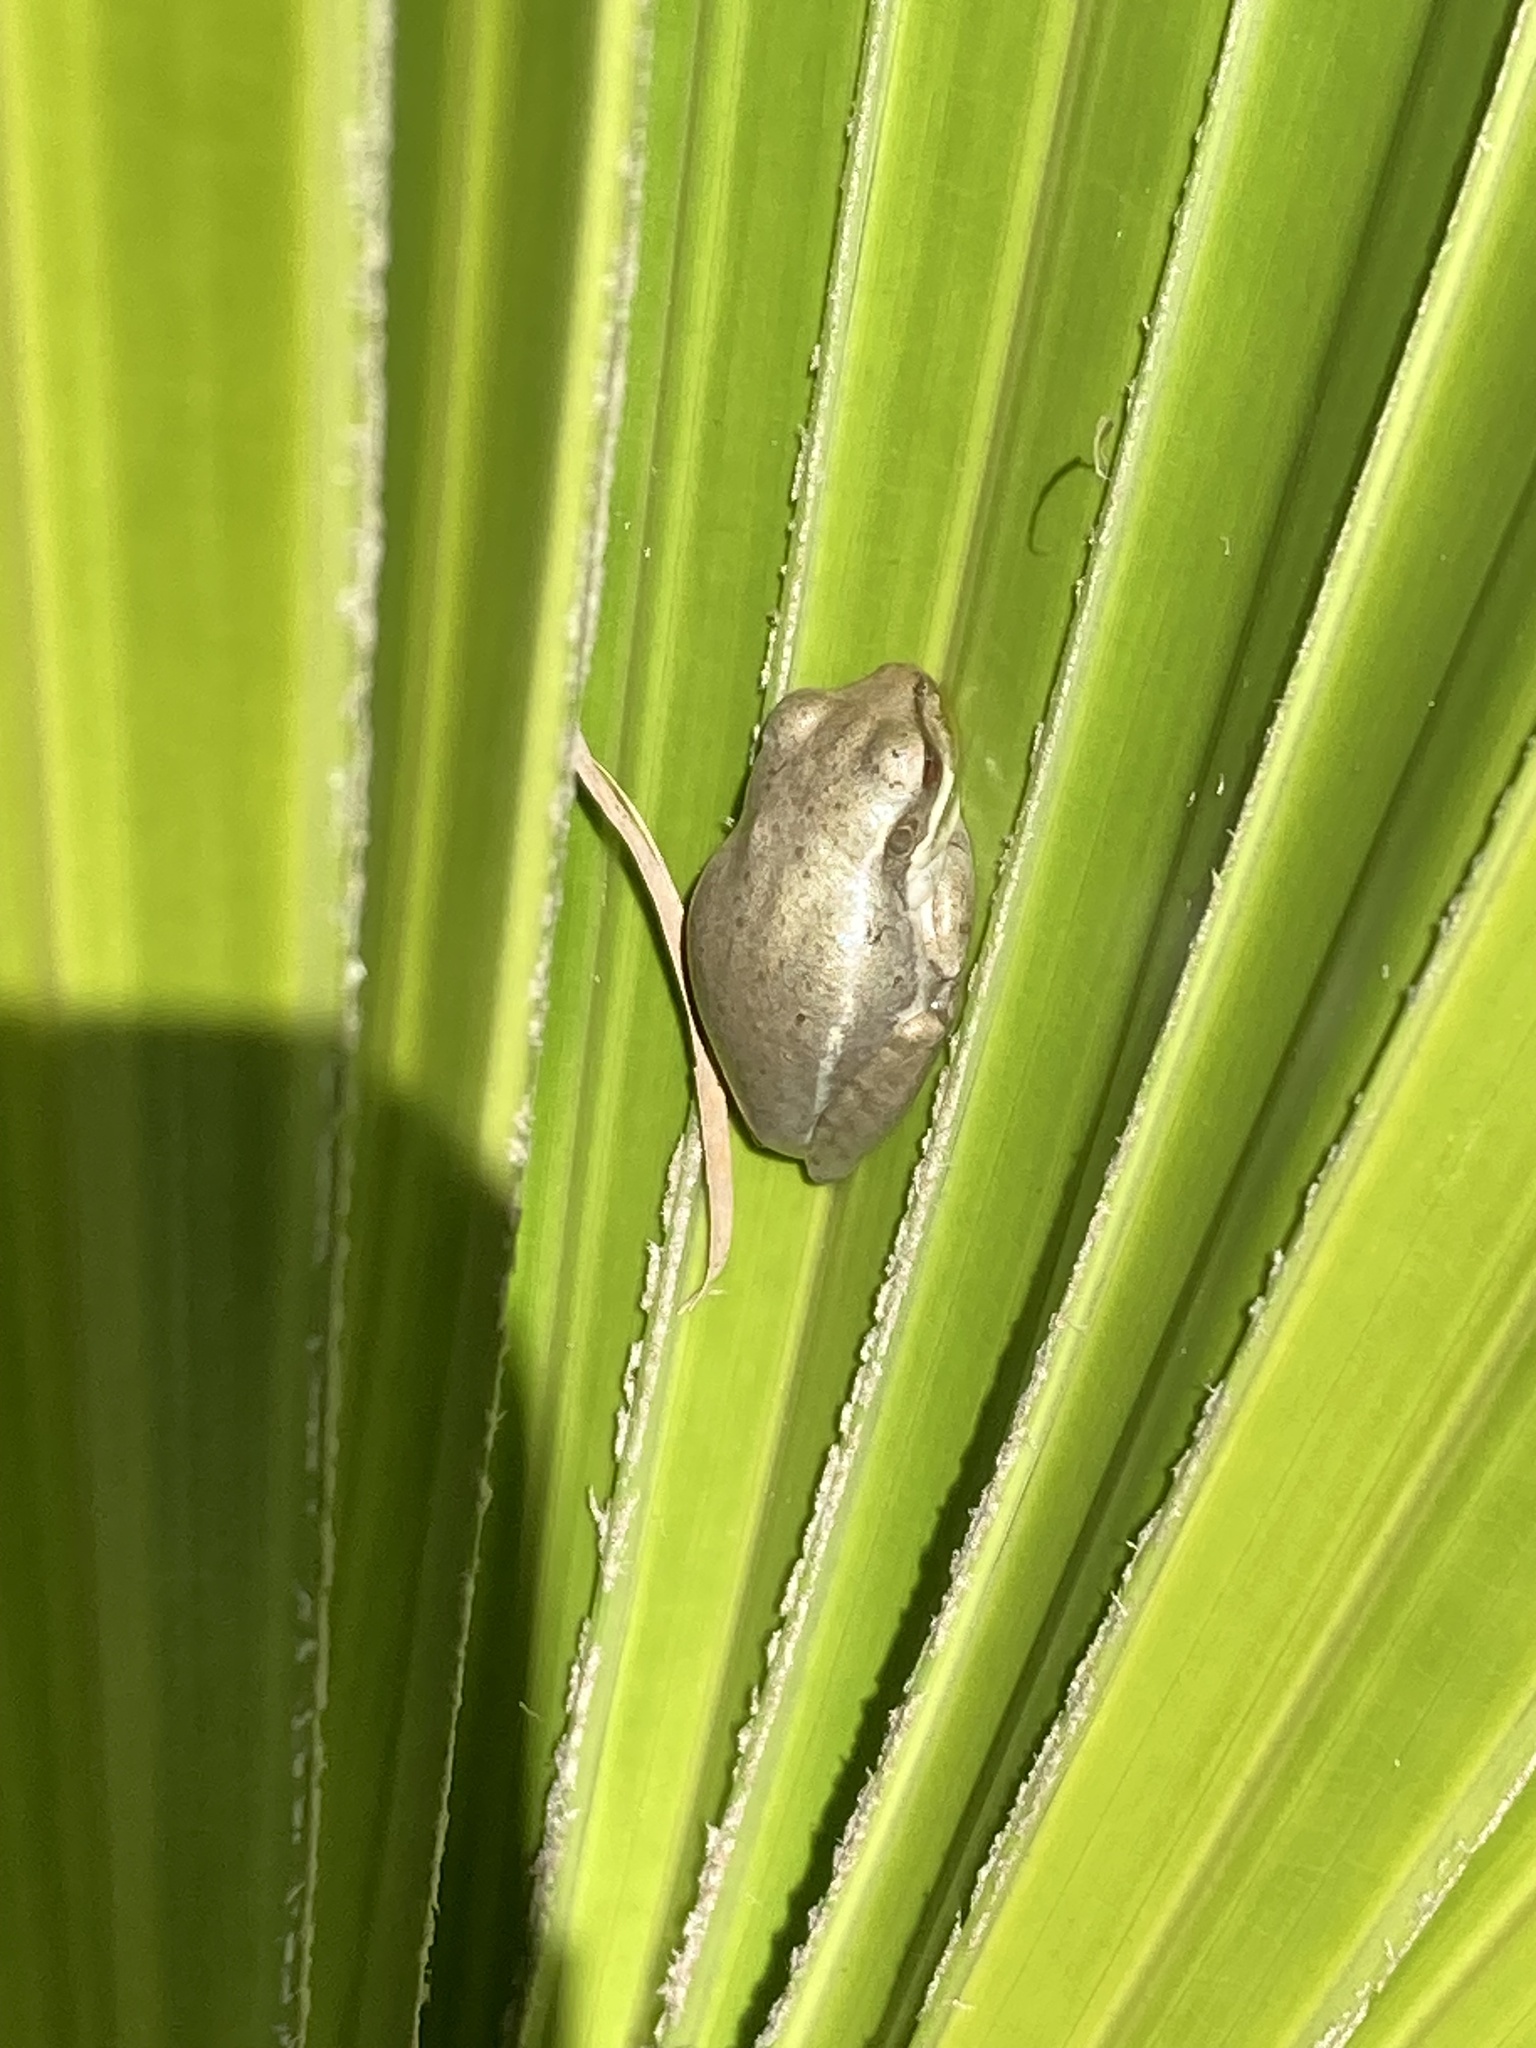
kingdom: Animalia
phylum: Chordata
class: Amphibia
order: Anura
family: Hylidae
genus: Osteopilus
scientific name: Osteopilus septentrionalis
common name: Cuban treefrog
